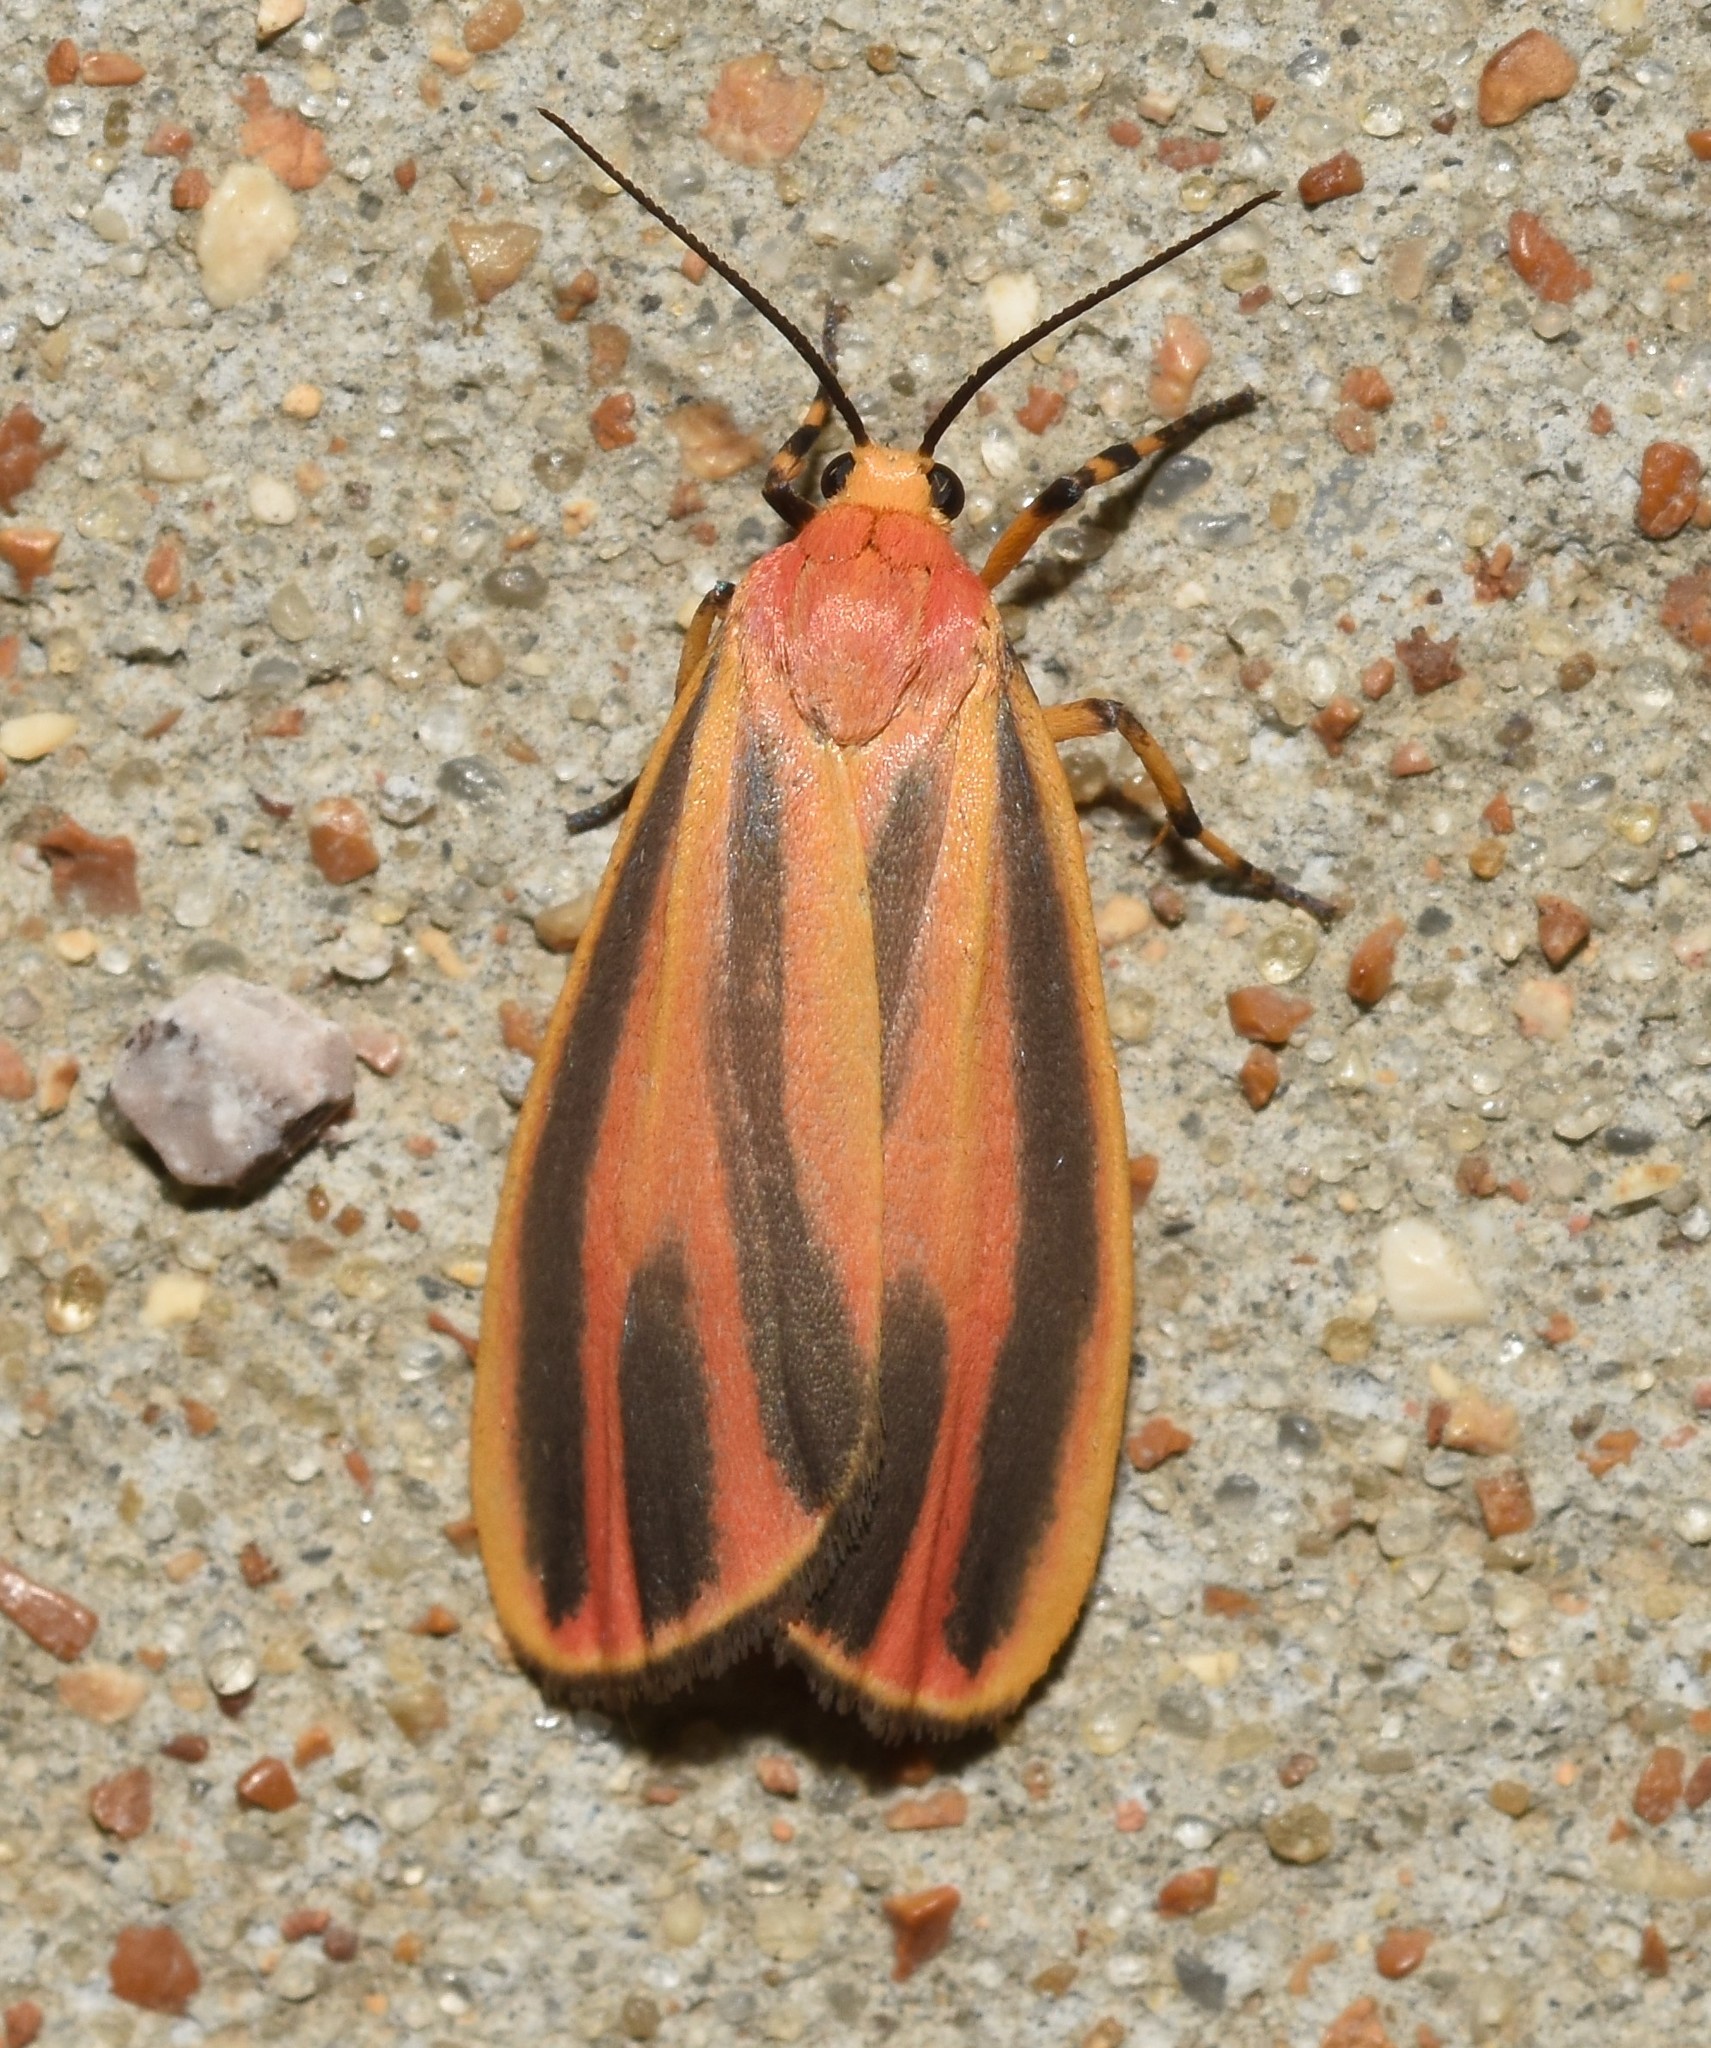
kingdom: Animalia
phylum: Arthropoda
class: Insecta
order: Lepidoptera
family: Erebidae
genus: Hypoprepia
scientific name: Hypoprepia fucosa
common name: Painted lichen moth
